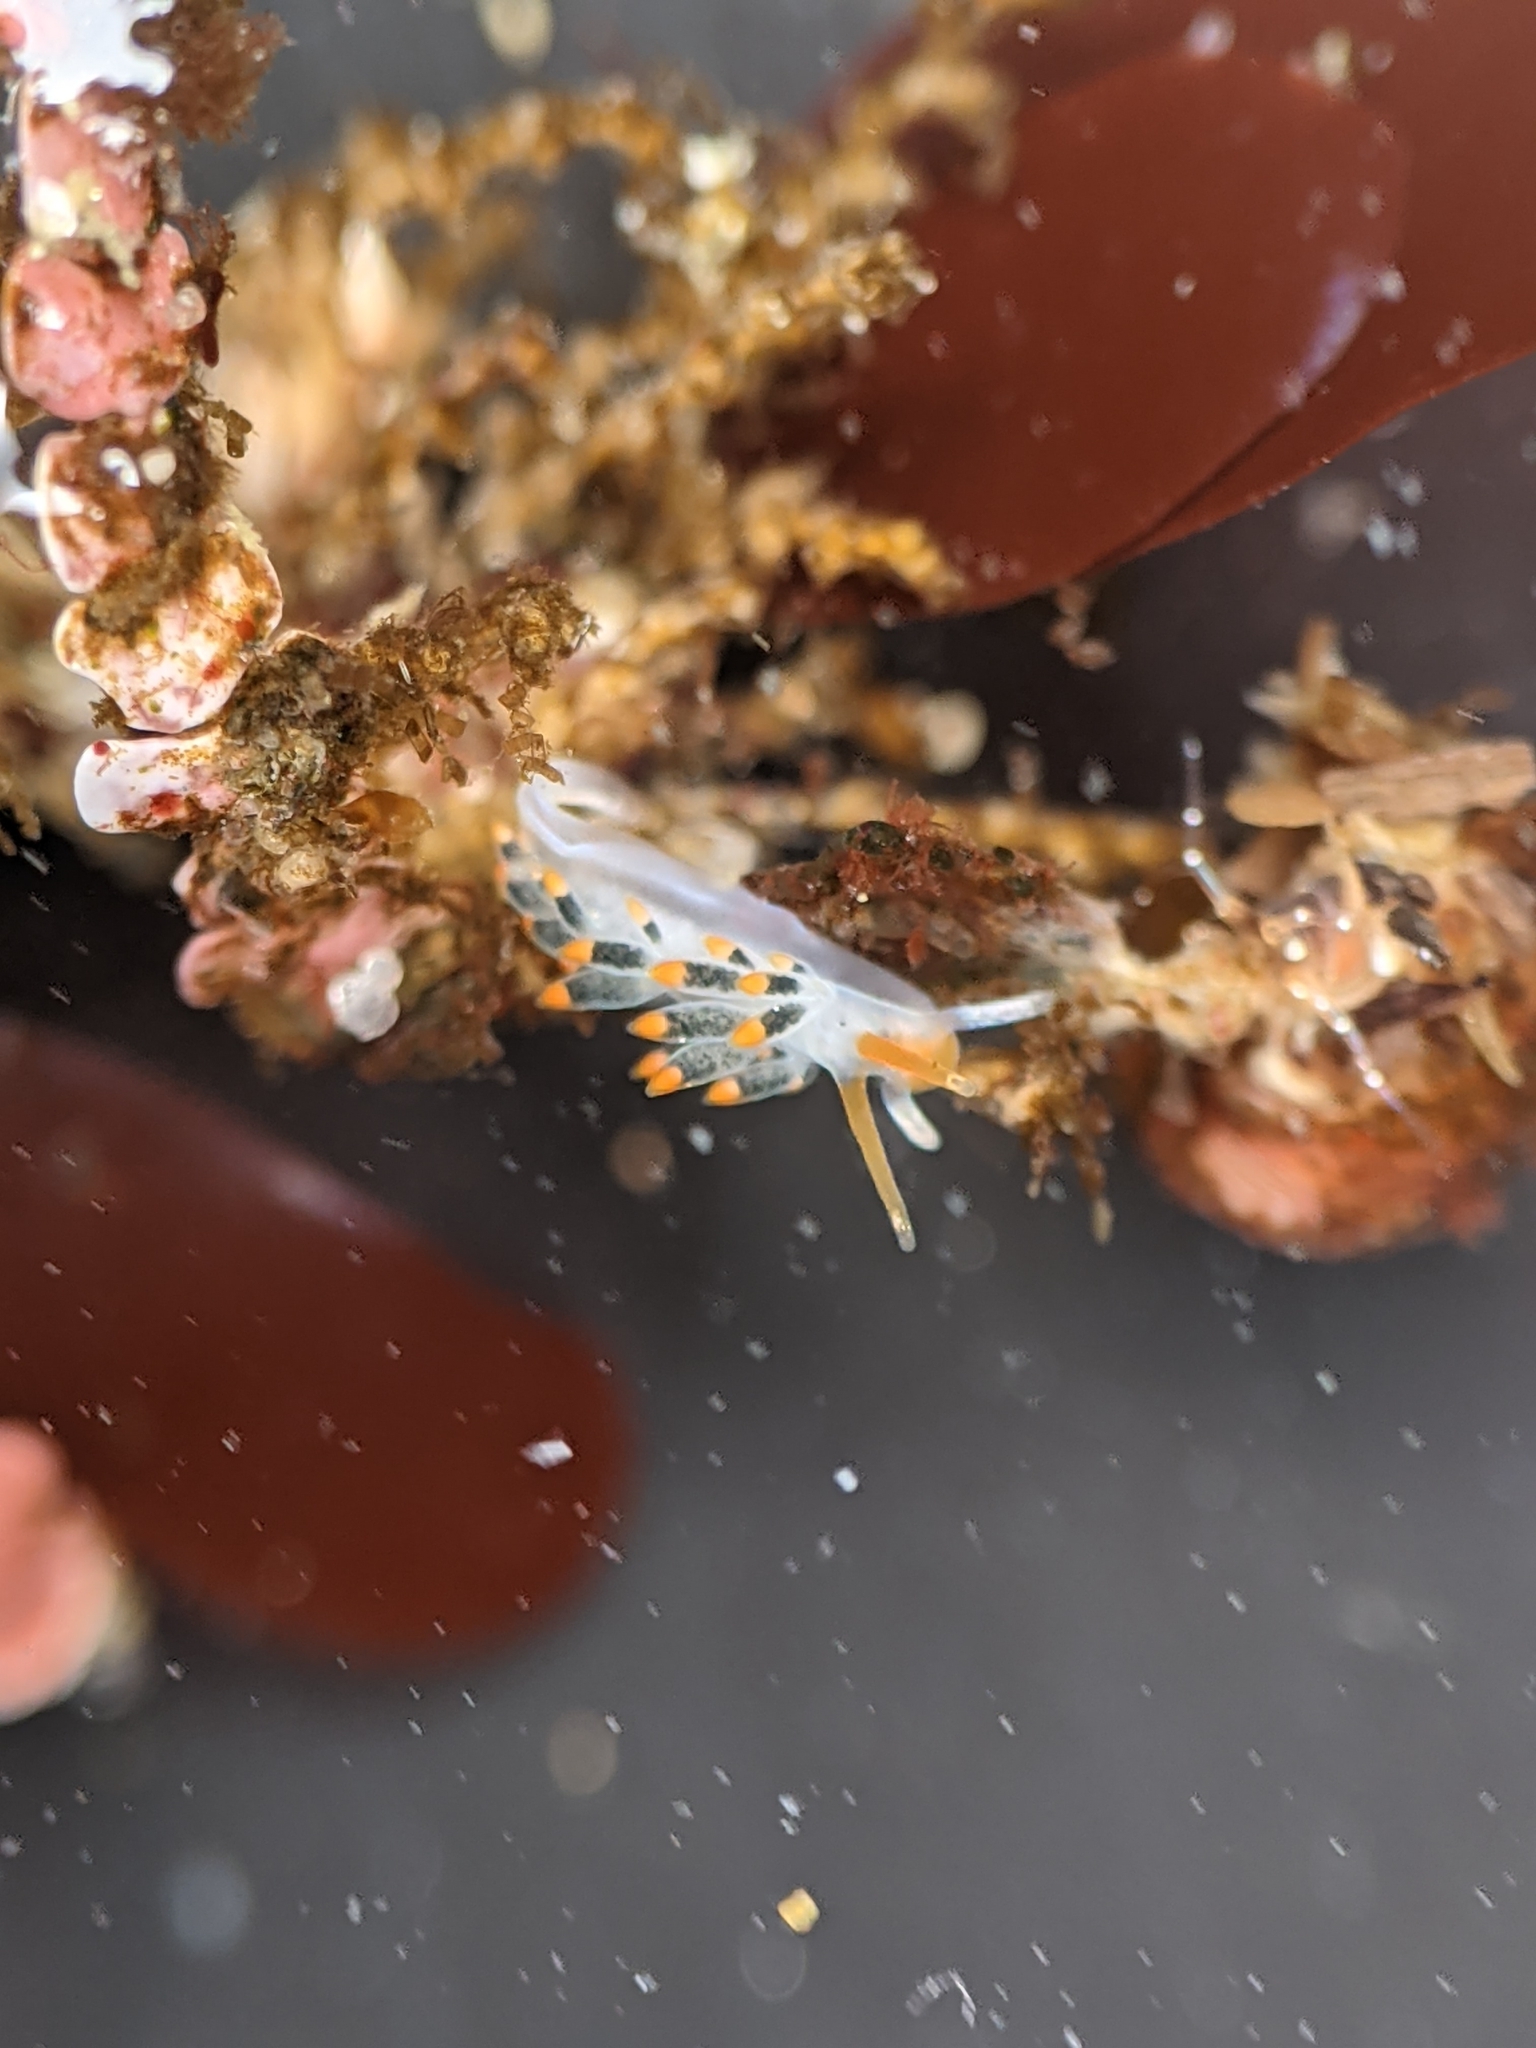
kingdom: Animalia
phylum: Mollusca
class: Gastropoda
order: Nudibranchia
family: Trinchesiidae
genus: Diaphoreolis
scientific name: Diaphoreolis lagunae
